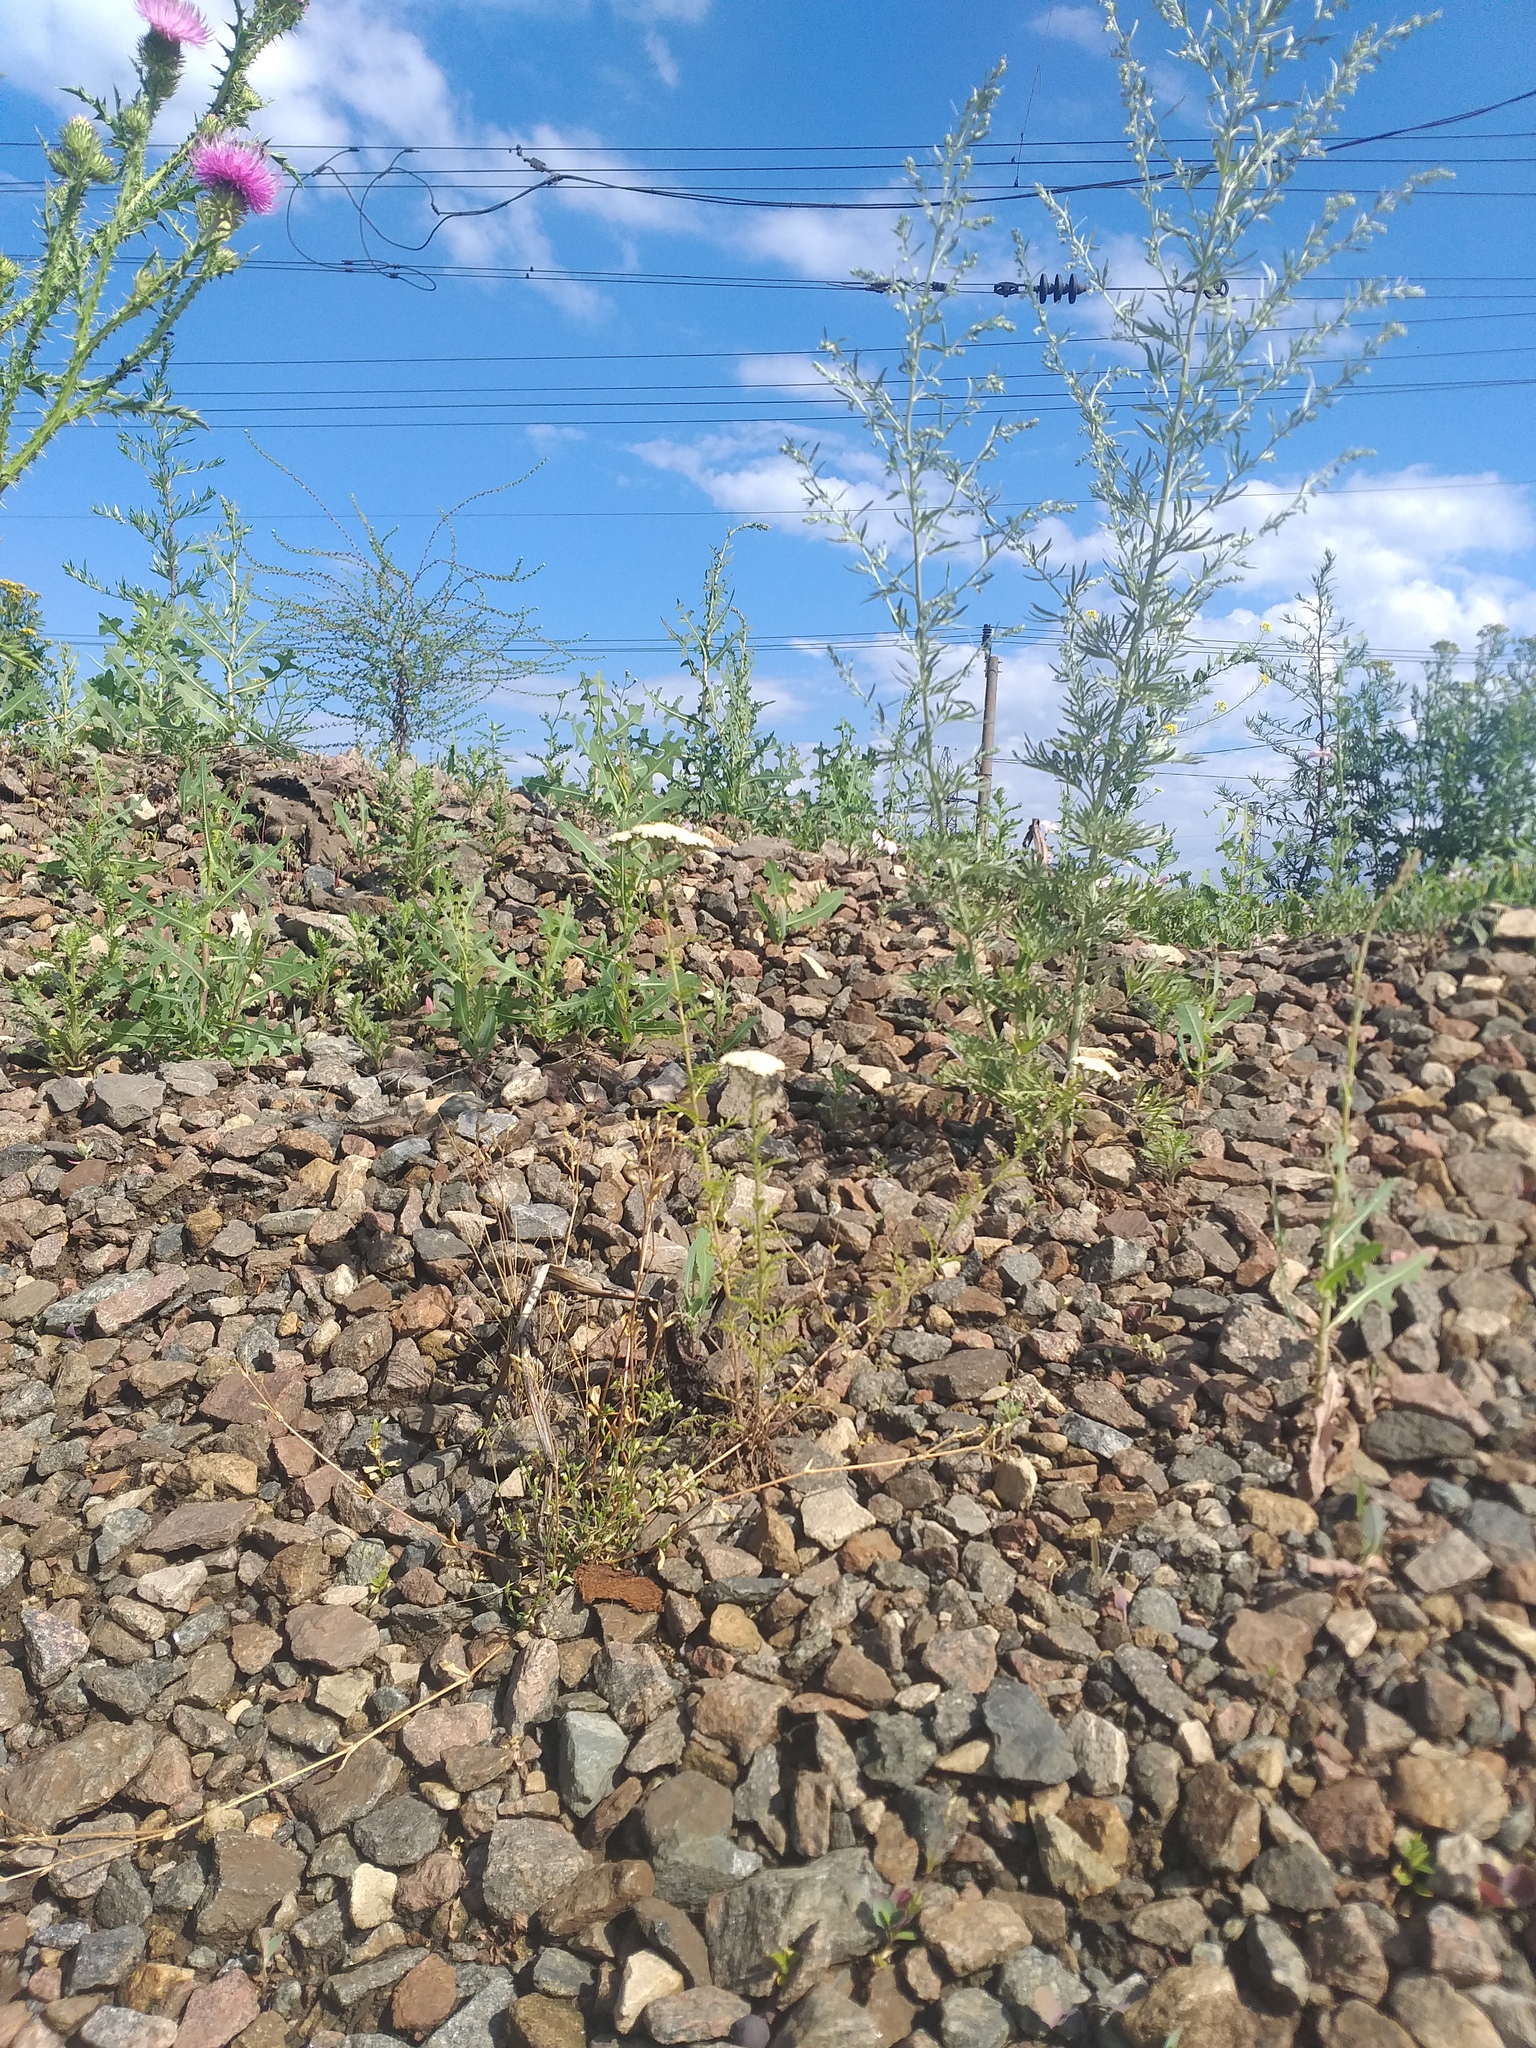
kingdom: Plantae
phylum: Tracheophyta
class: Magnoliopsida
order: Asterales
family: Asteraceae
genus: Achillea
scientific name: Achillea nobilis
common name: Noble yarrow
